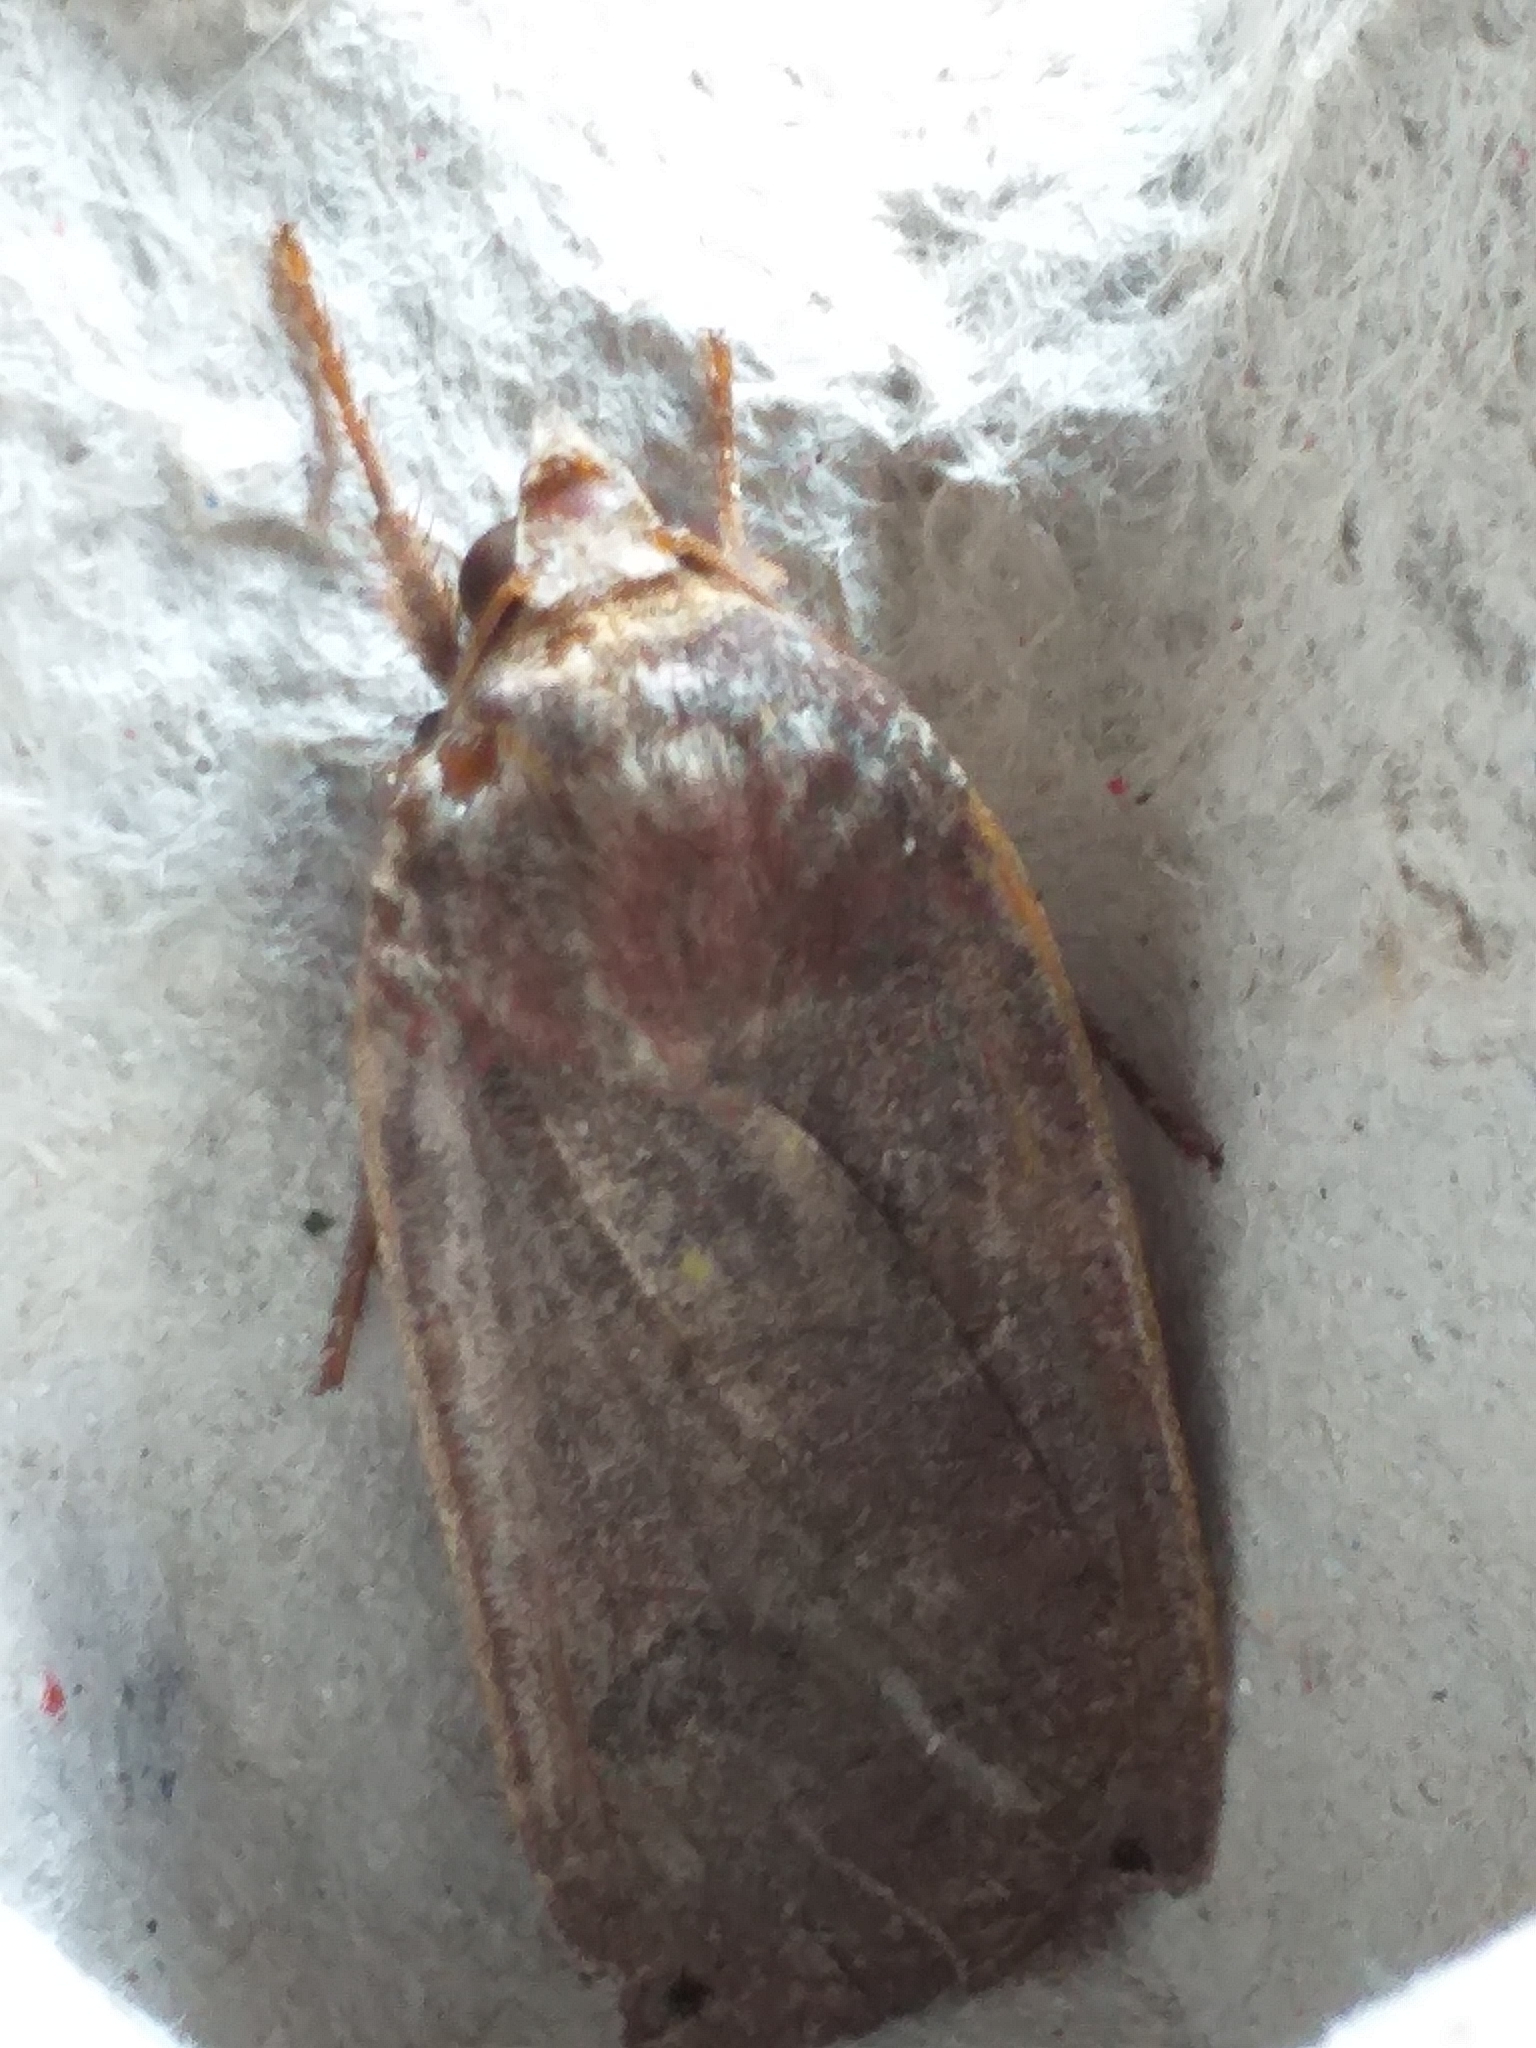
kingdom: Animalia
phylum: Arthropoda
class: Insecta
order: Lepidoptera
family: Noctuidae
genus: Noctua
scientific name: Noctua pronuba
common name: Large yellow underwing
